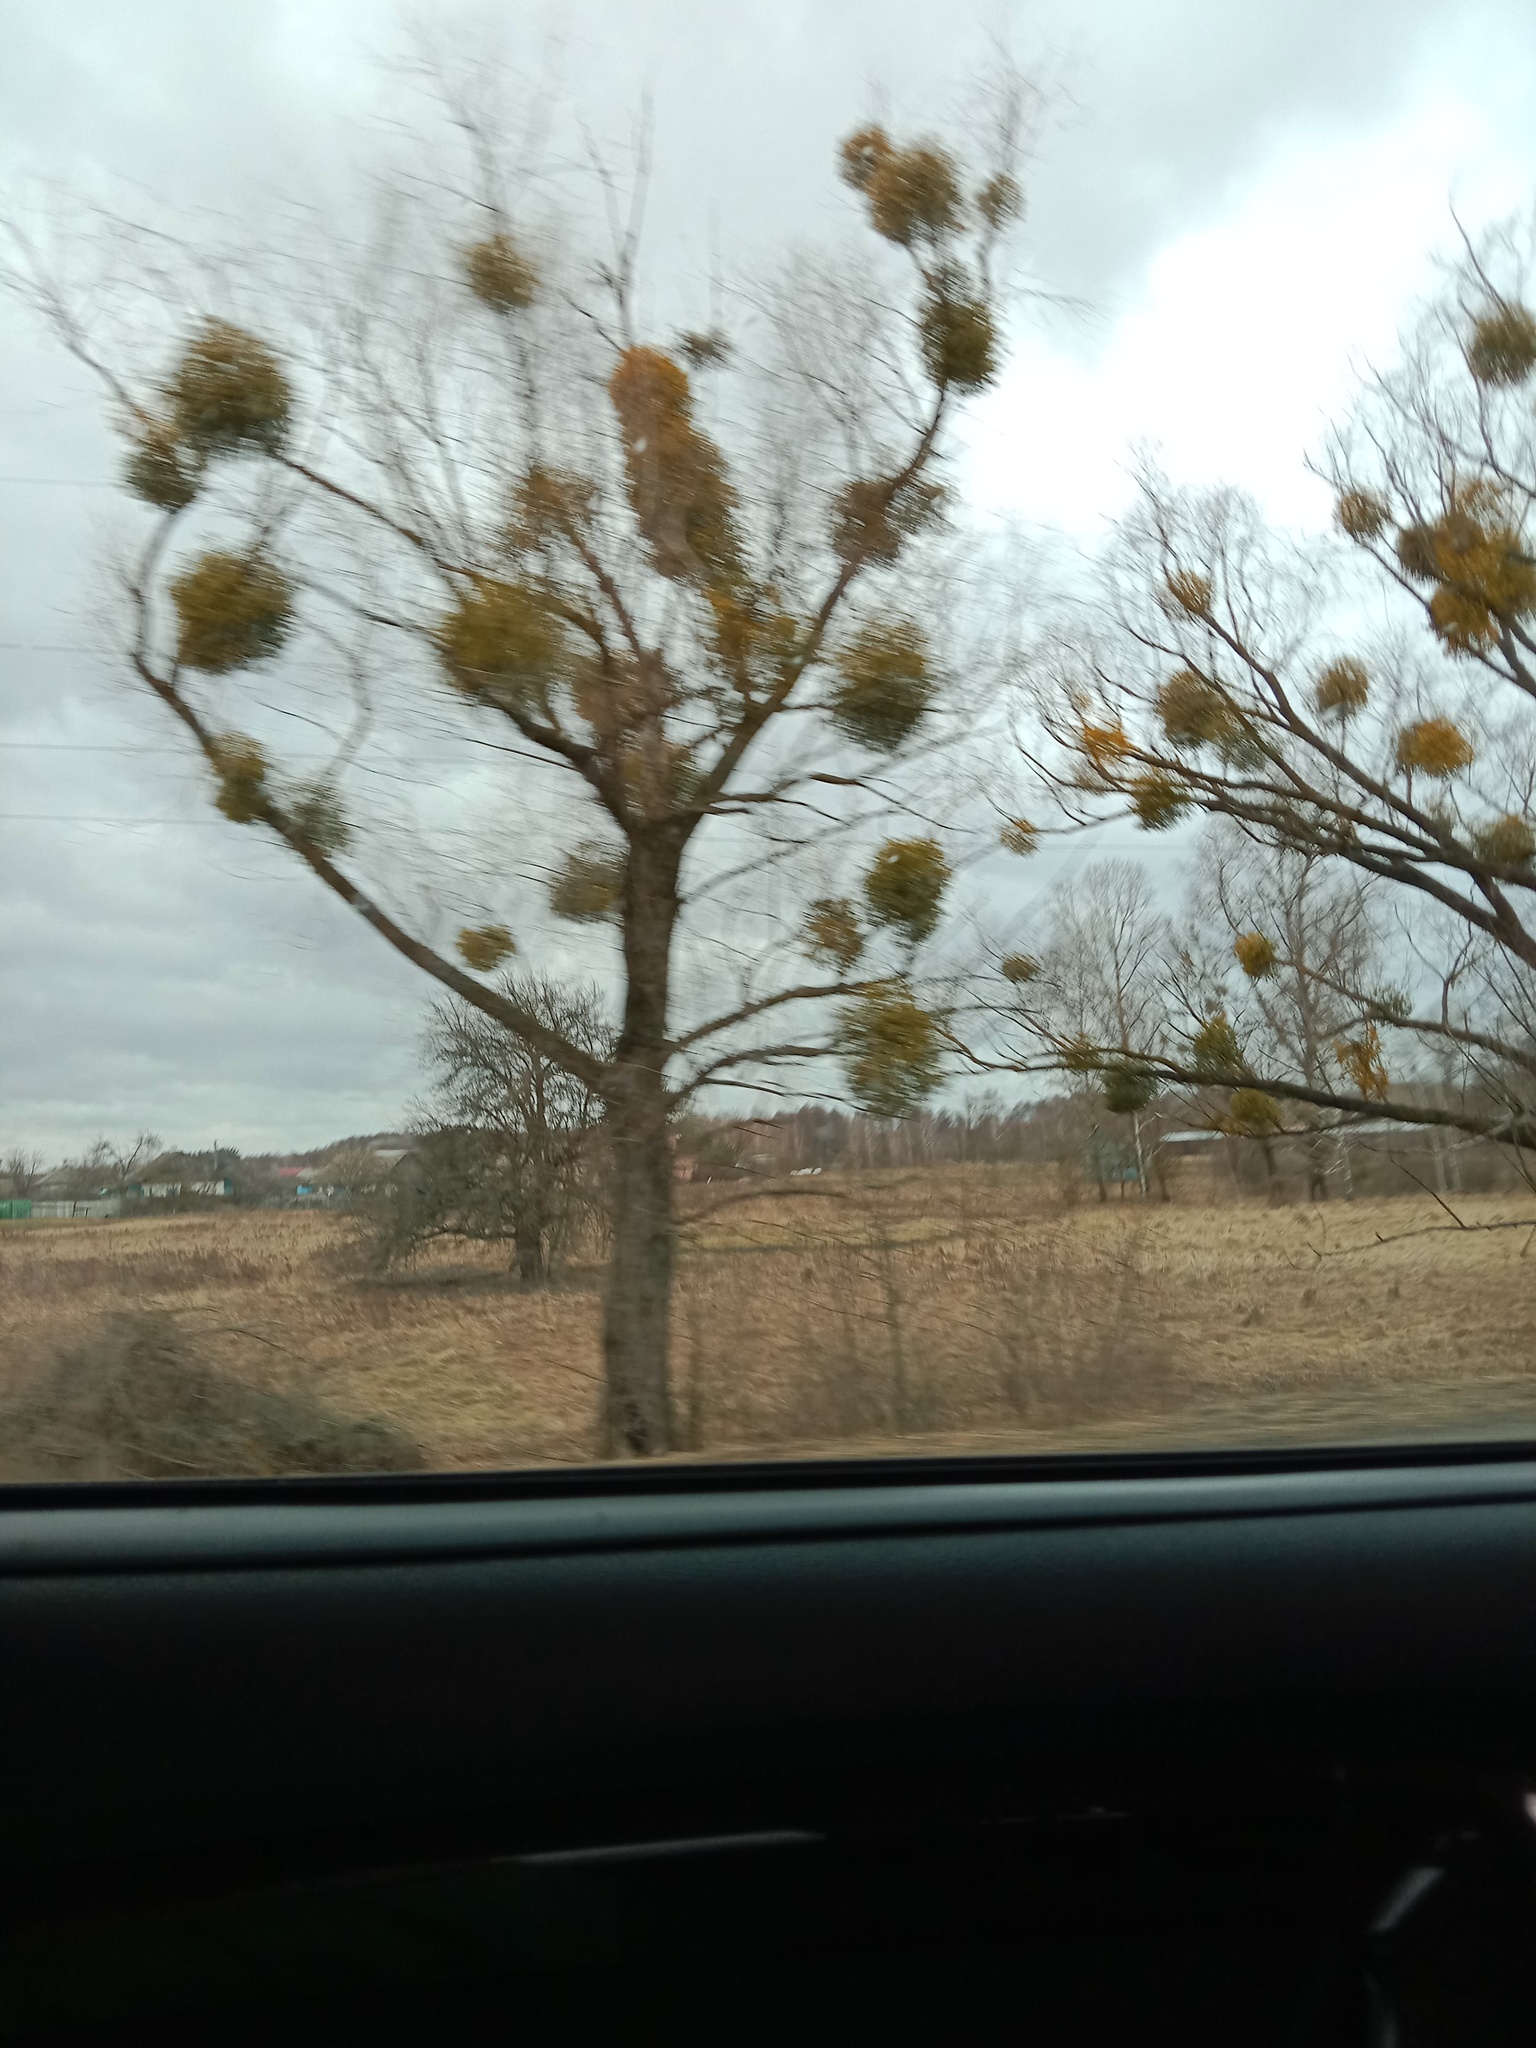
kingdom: Plantae
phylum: Tracheophyta
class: Magnoliopsida
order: Santalales
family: Viscaceae
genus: Viscum
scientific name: Viscum album
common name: Mistletoe
